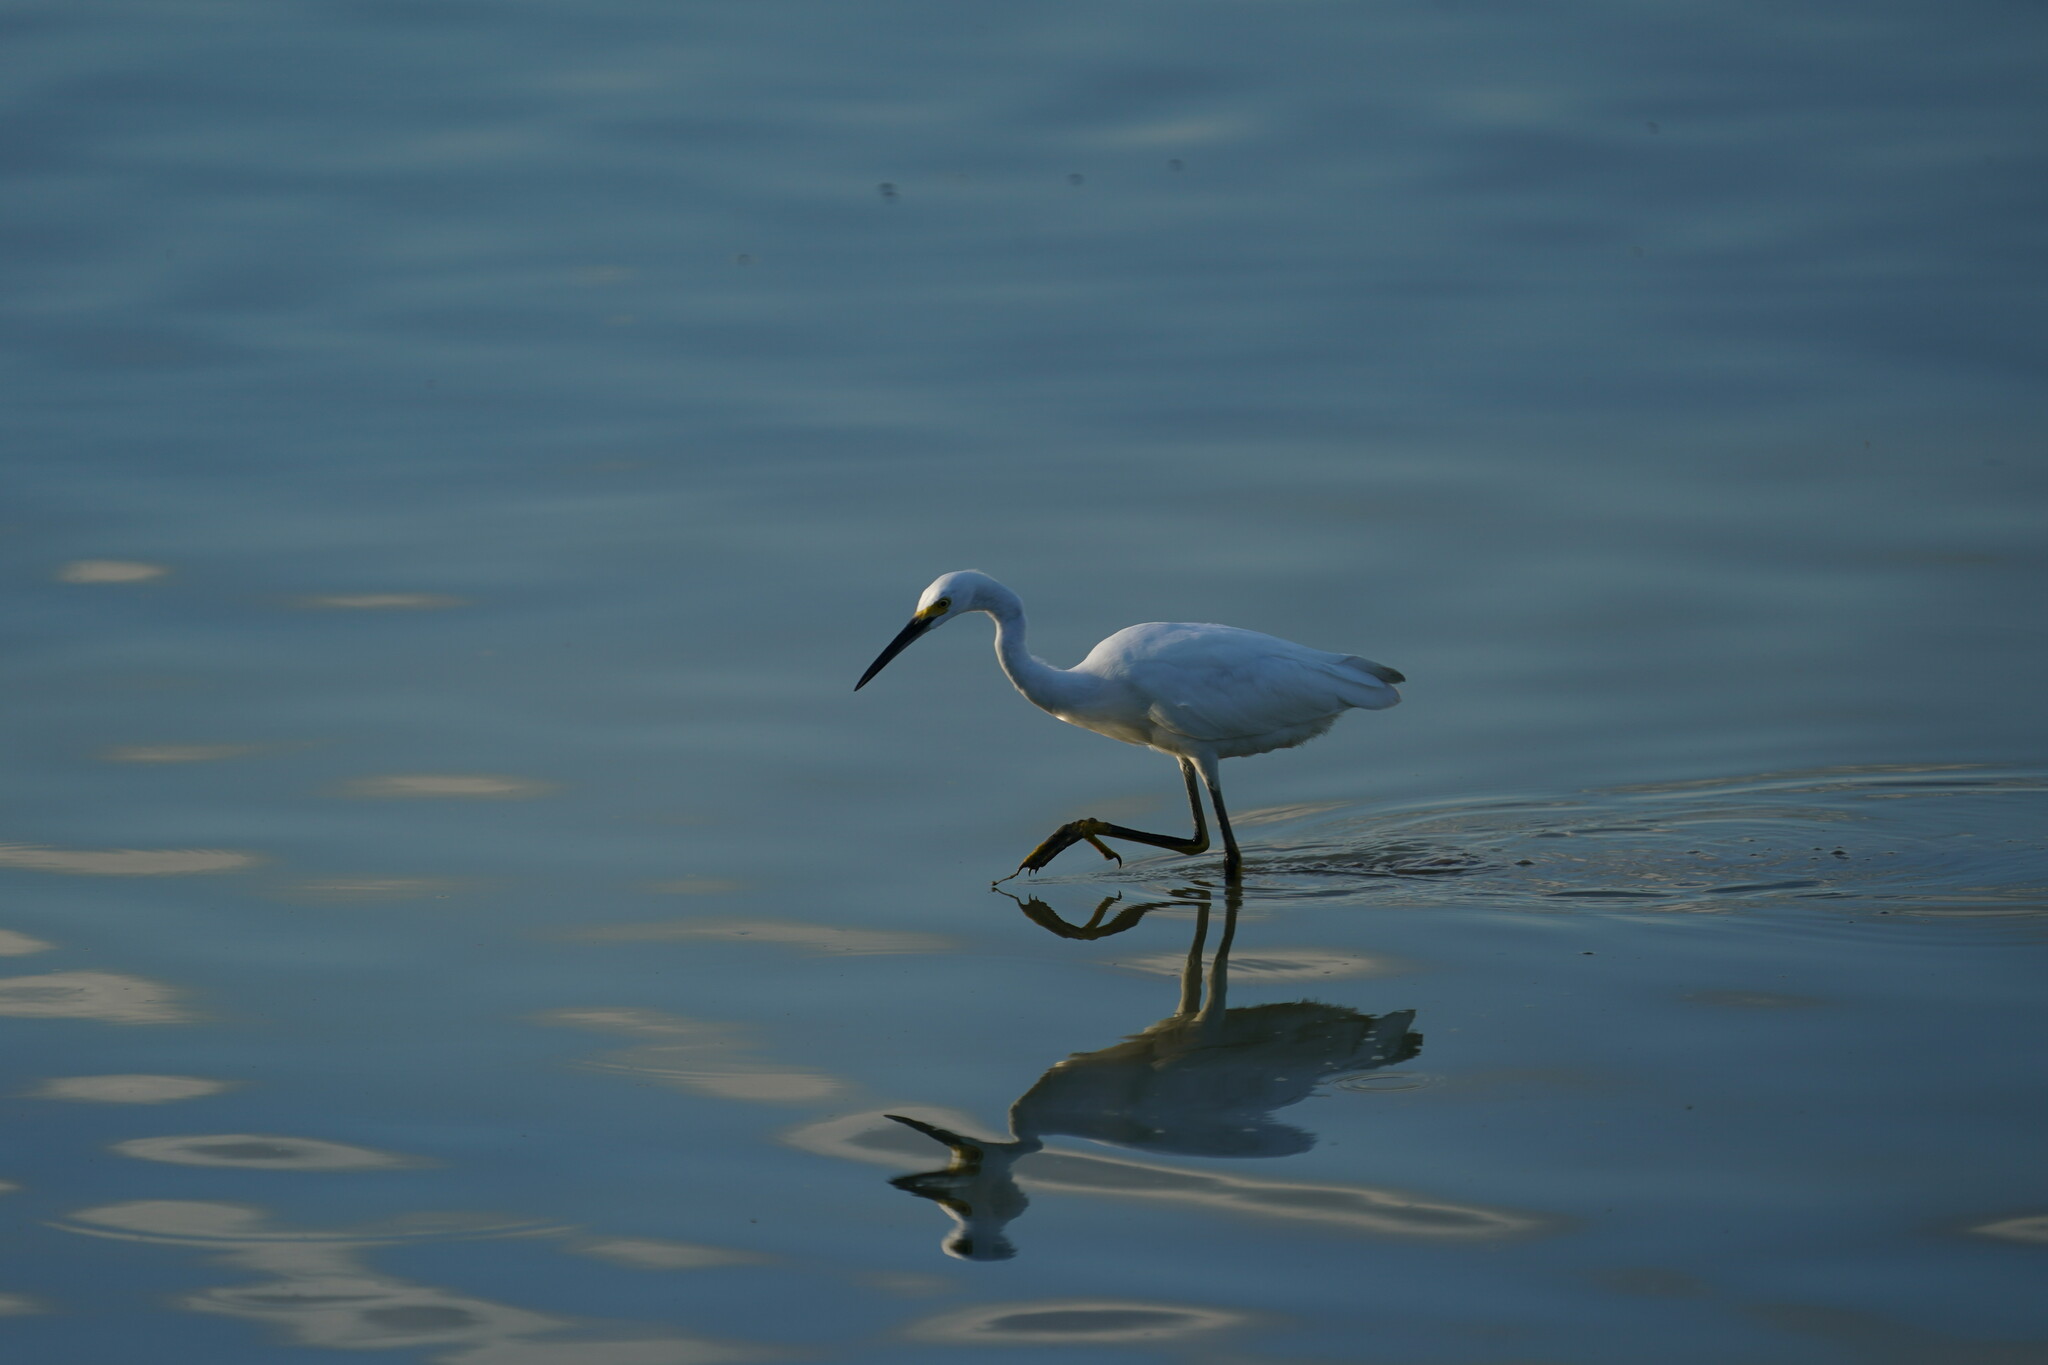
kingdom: Animalia
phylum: Chordata
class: Aves
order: Pelecaniformes
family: Ardeidae
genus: Egretta
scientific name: Egretta thula
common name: Snowy egret
